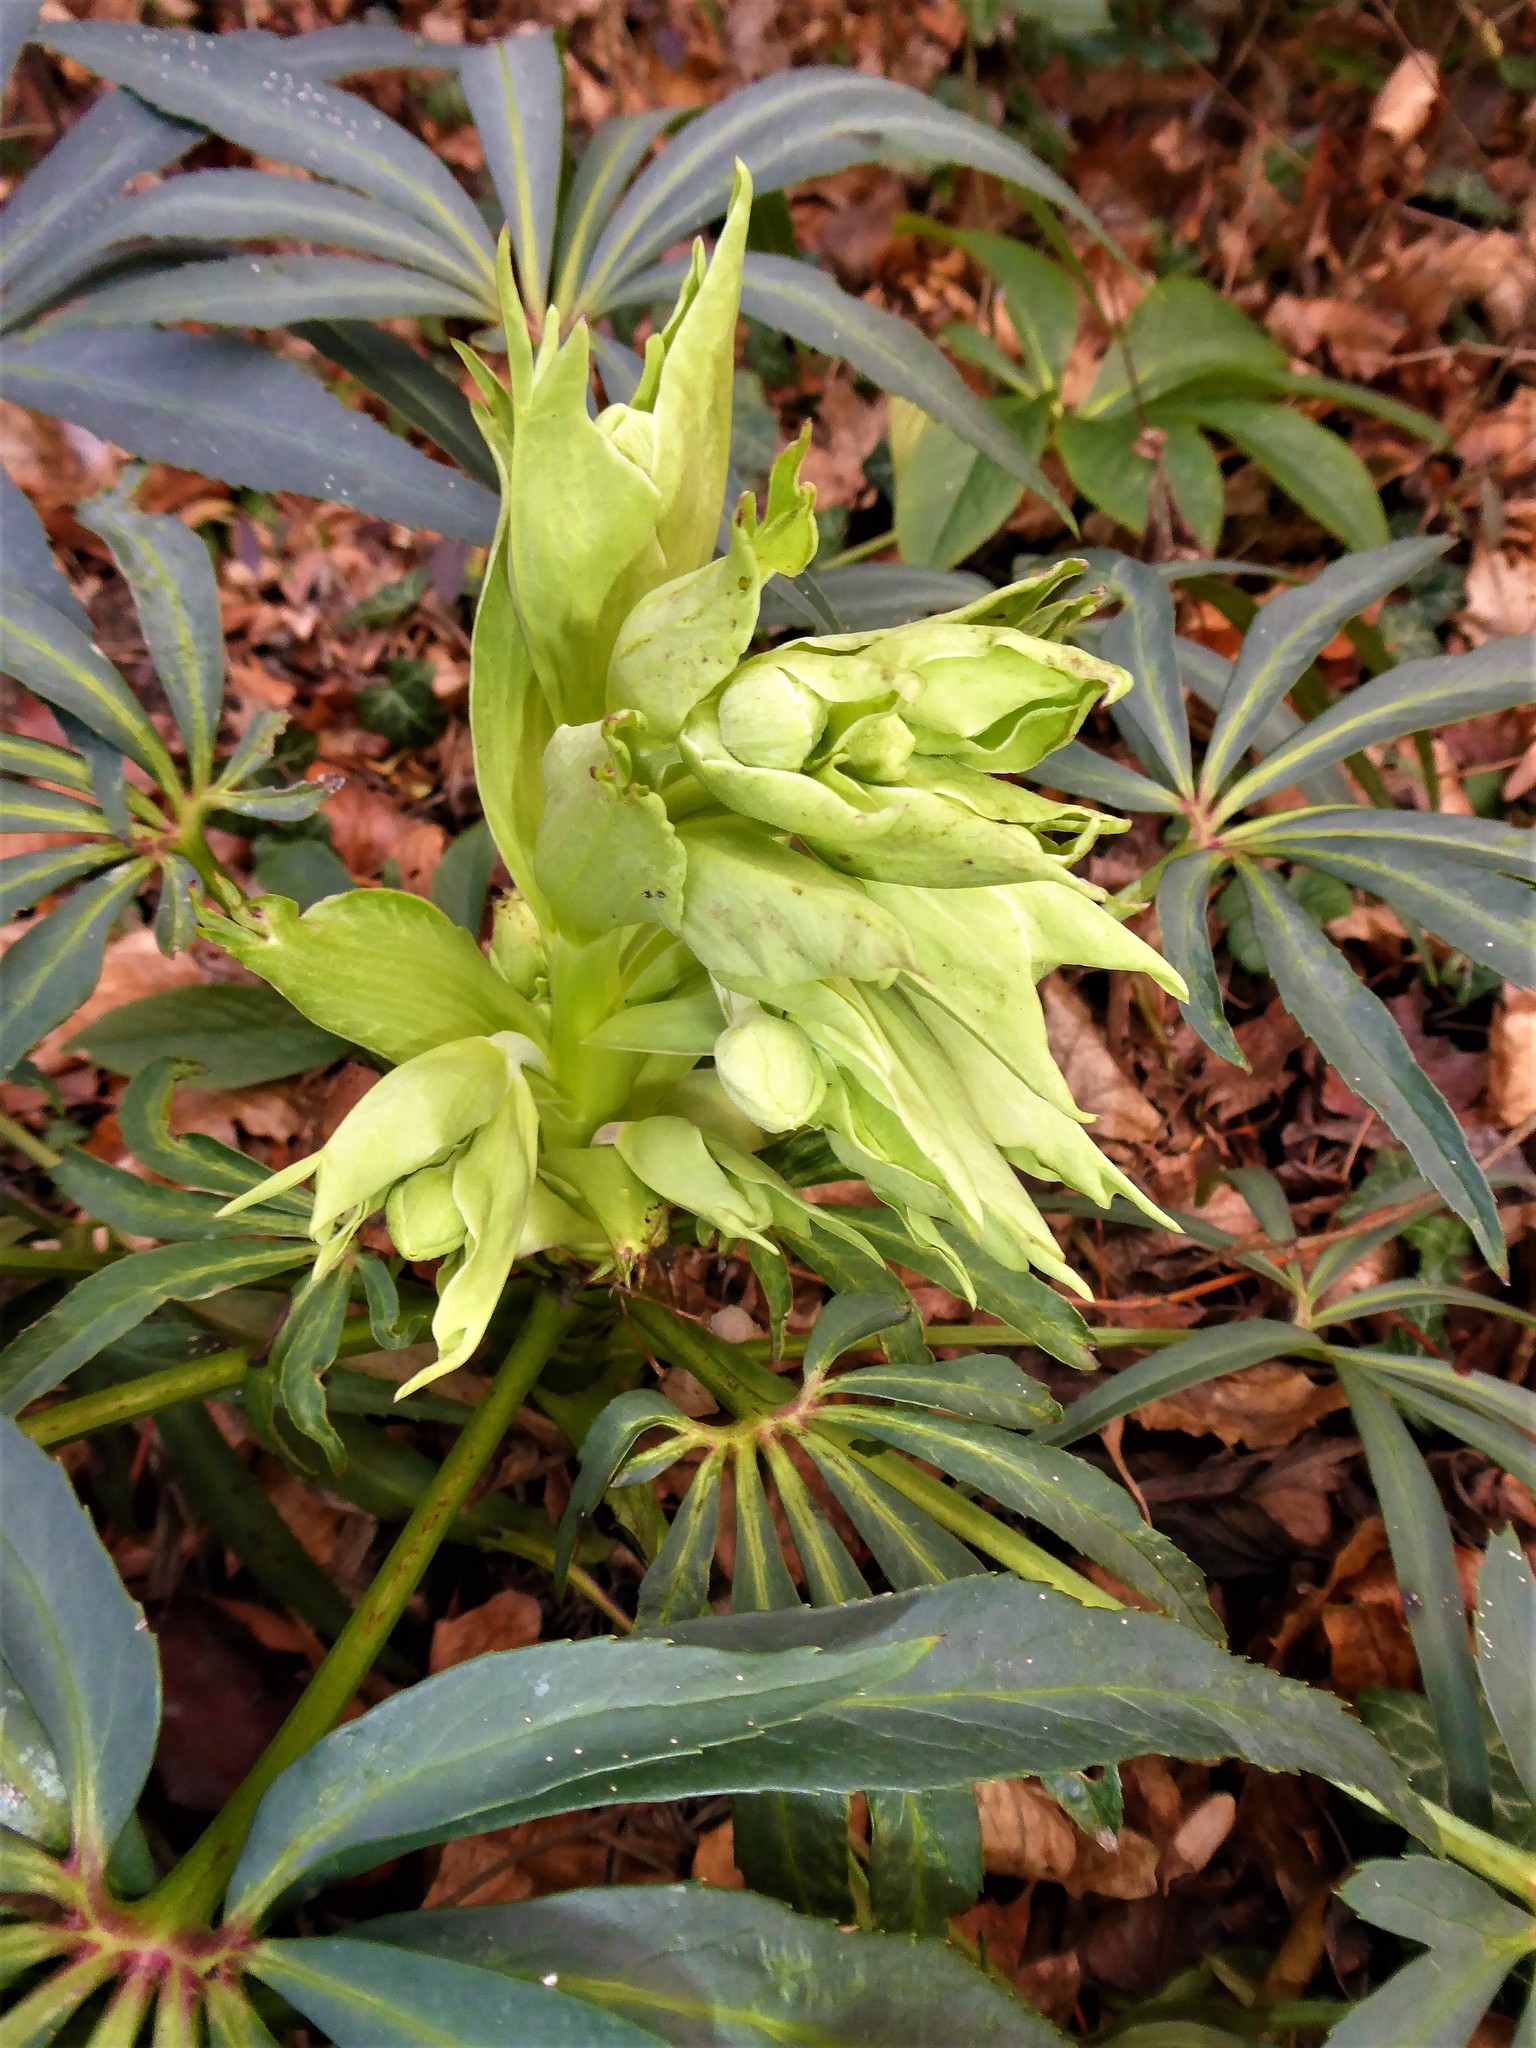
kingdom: Plantae
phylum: Tracheophyta
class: Magnoliopsida
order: Ranunculales
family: Ranunculaceae
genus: Helleborus
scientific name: Helleborus foetidus
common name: Stinking hellebore
